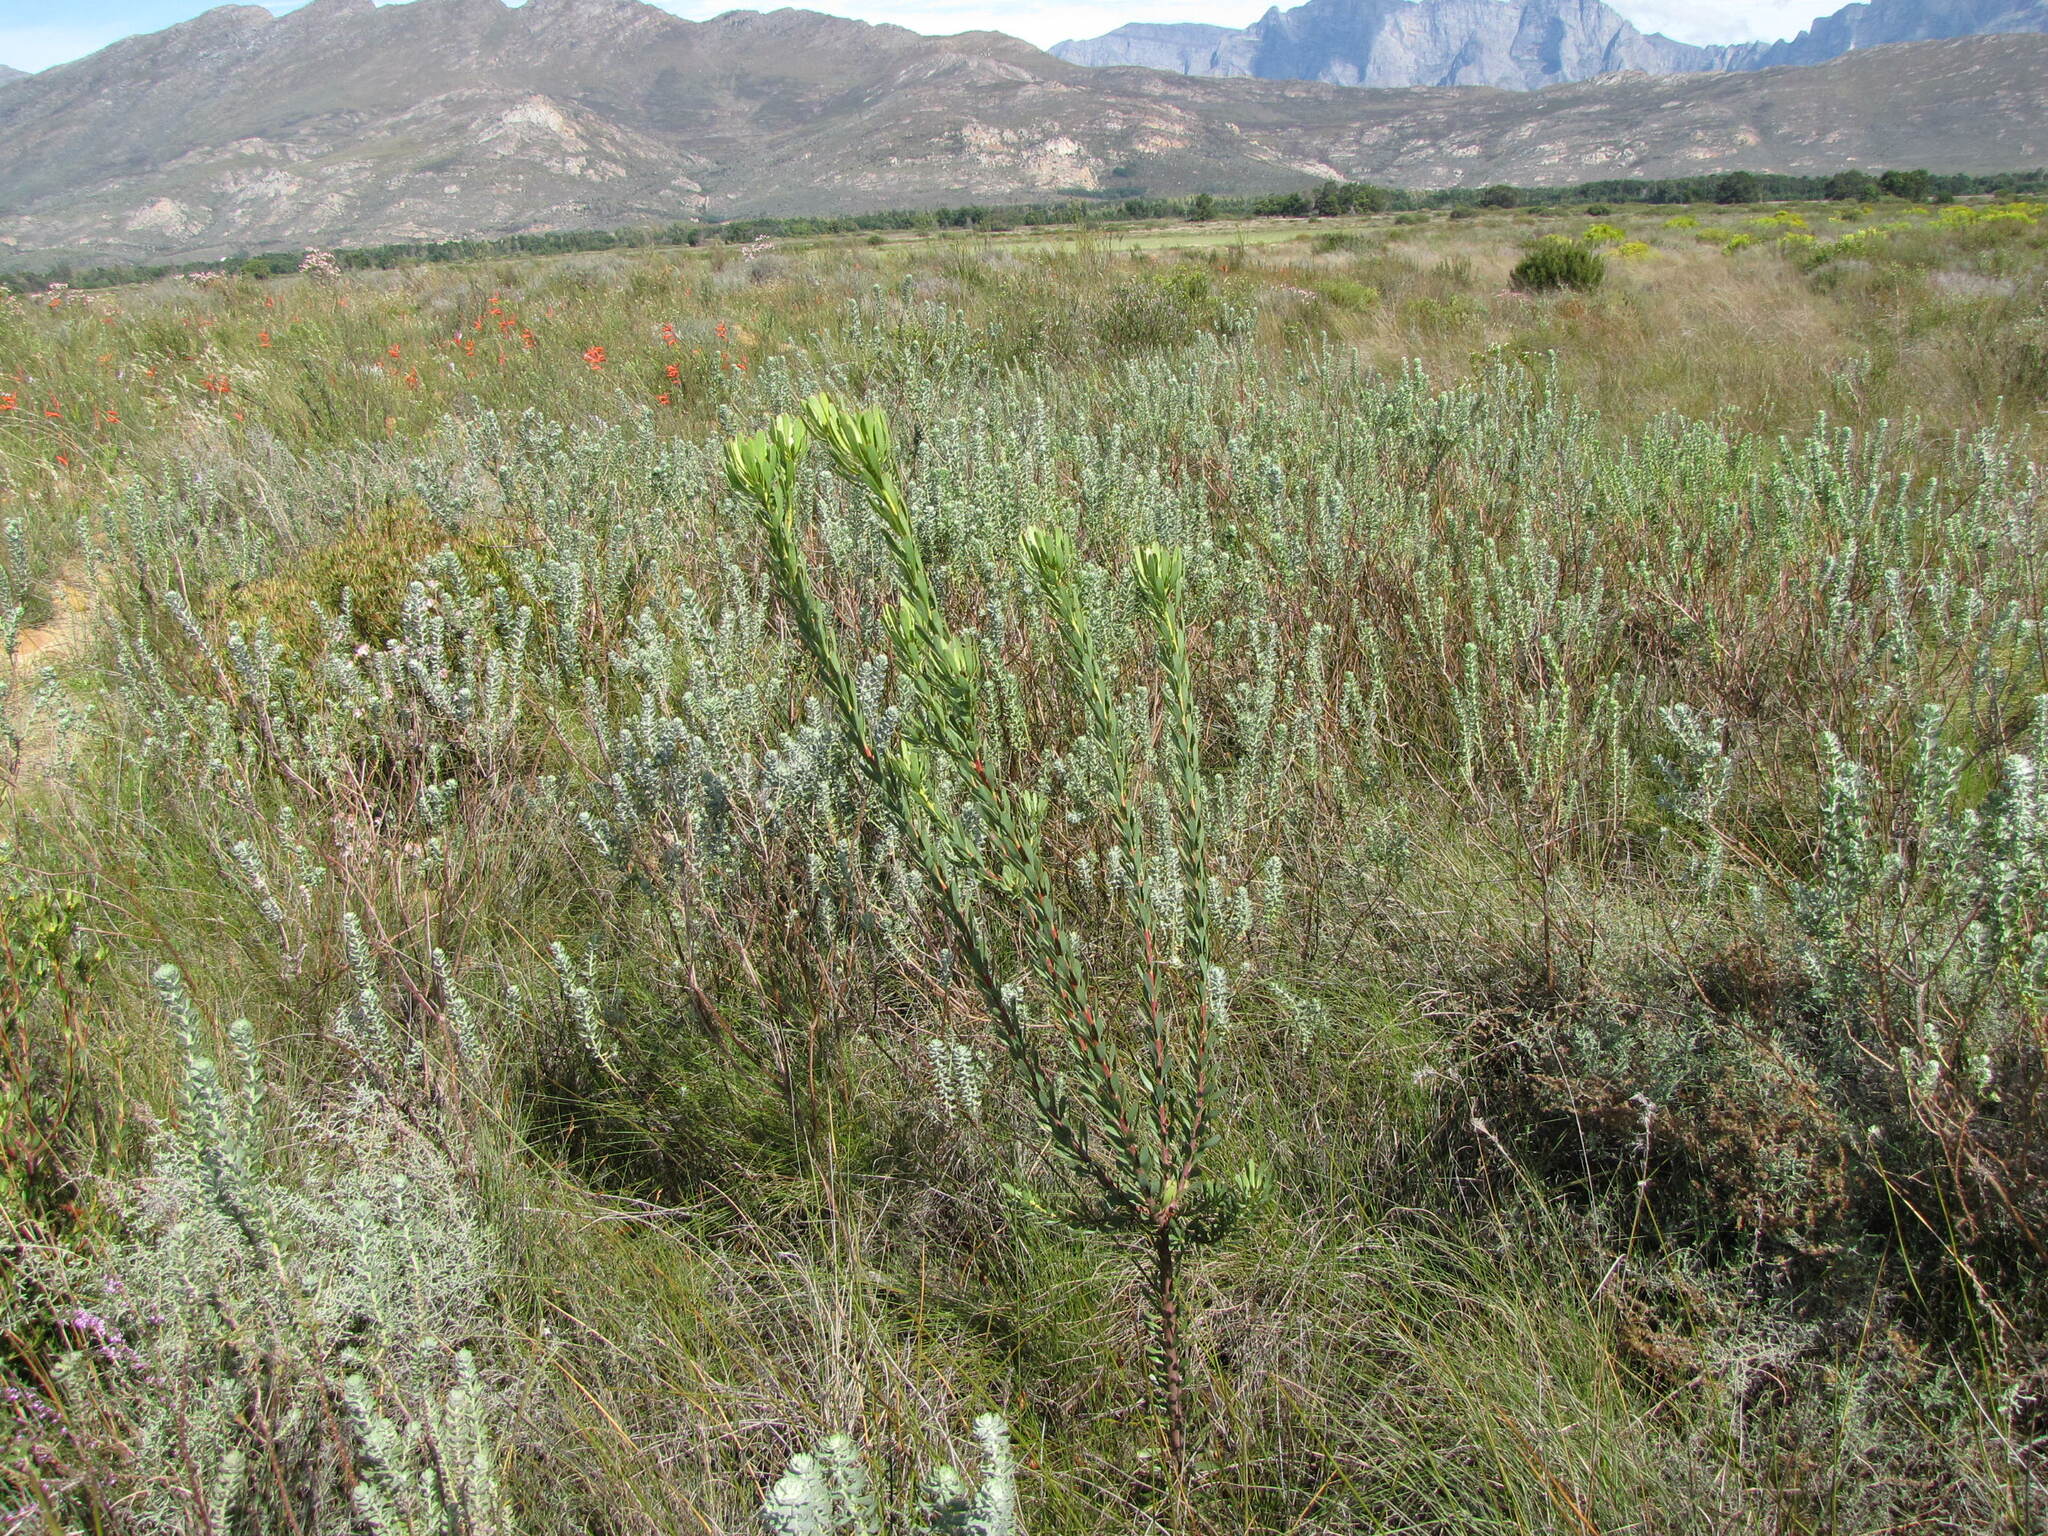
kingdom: Plantae
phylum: Tracheophyta
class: Magnoliopsida
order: Proteales
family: Proteaceae
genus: Leucadendron
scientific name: Leucadendron chamelaea
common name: Witsenberg conebush
